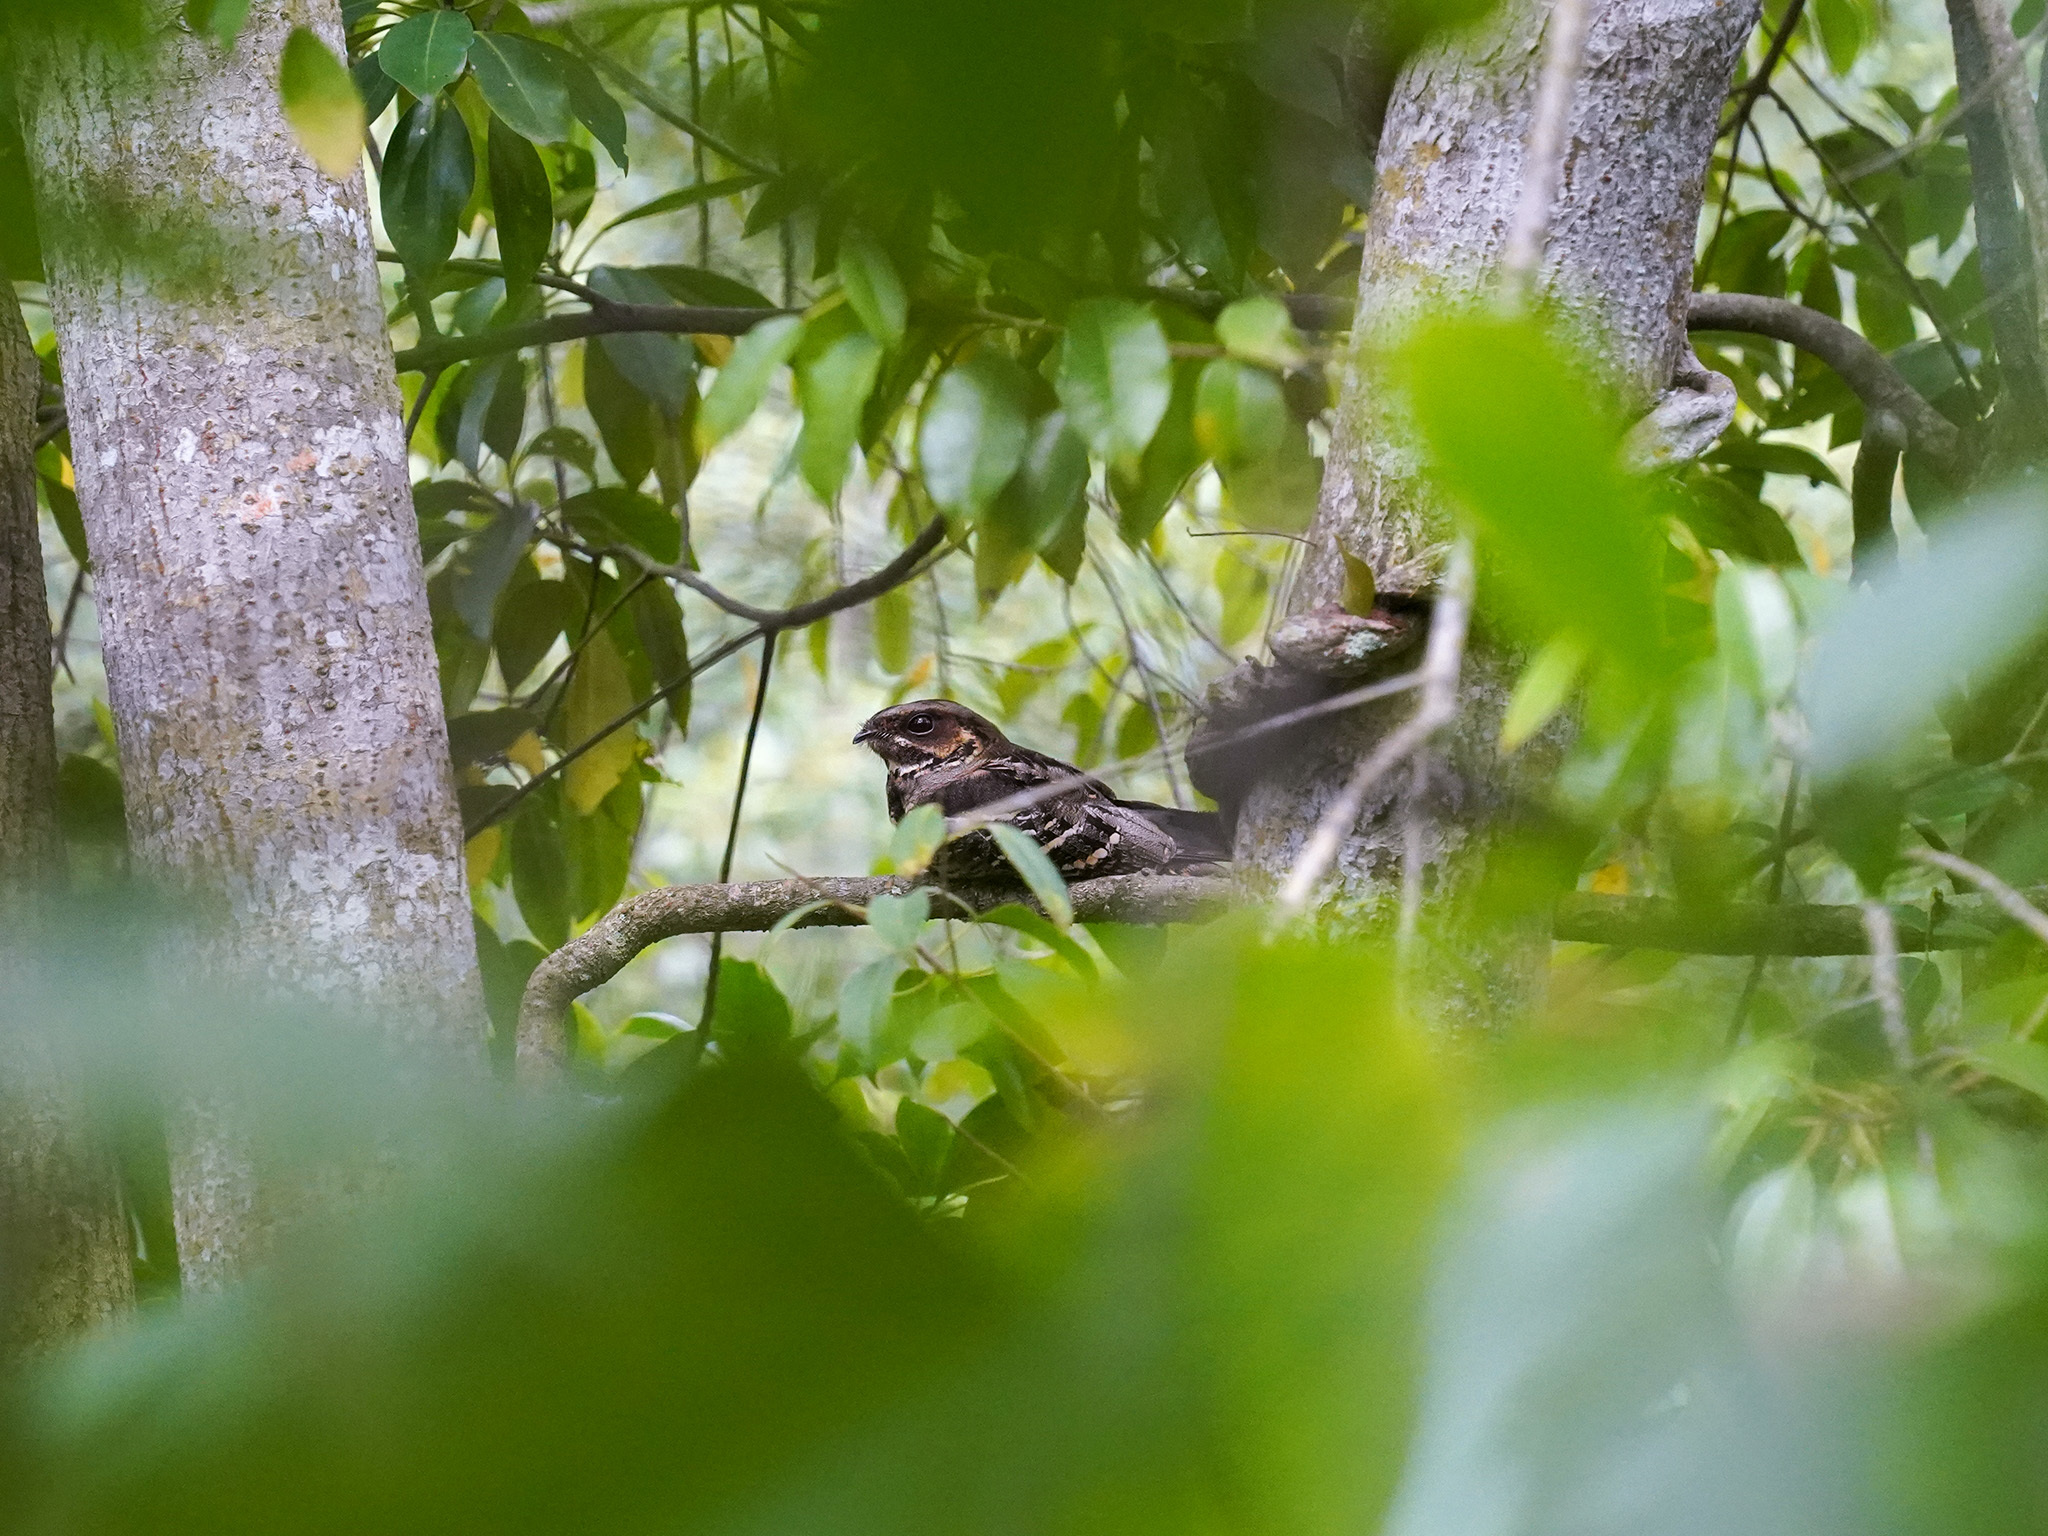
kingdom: Animalia
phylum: Chordata
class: Aves
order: Caprimulgiformes
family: Caprimulgidae
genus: Caprimulgus
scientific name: Caprimulgus macrurus
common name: Large-tailed nightjar
